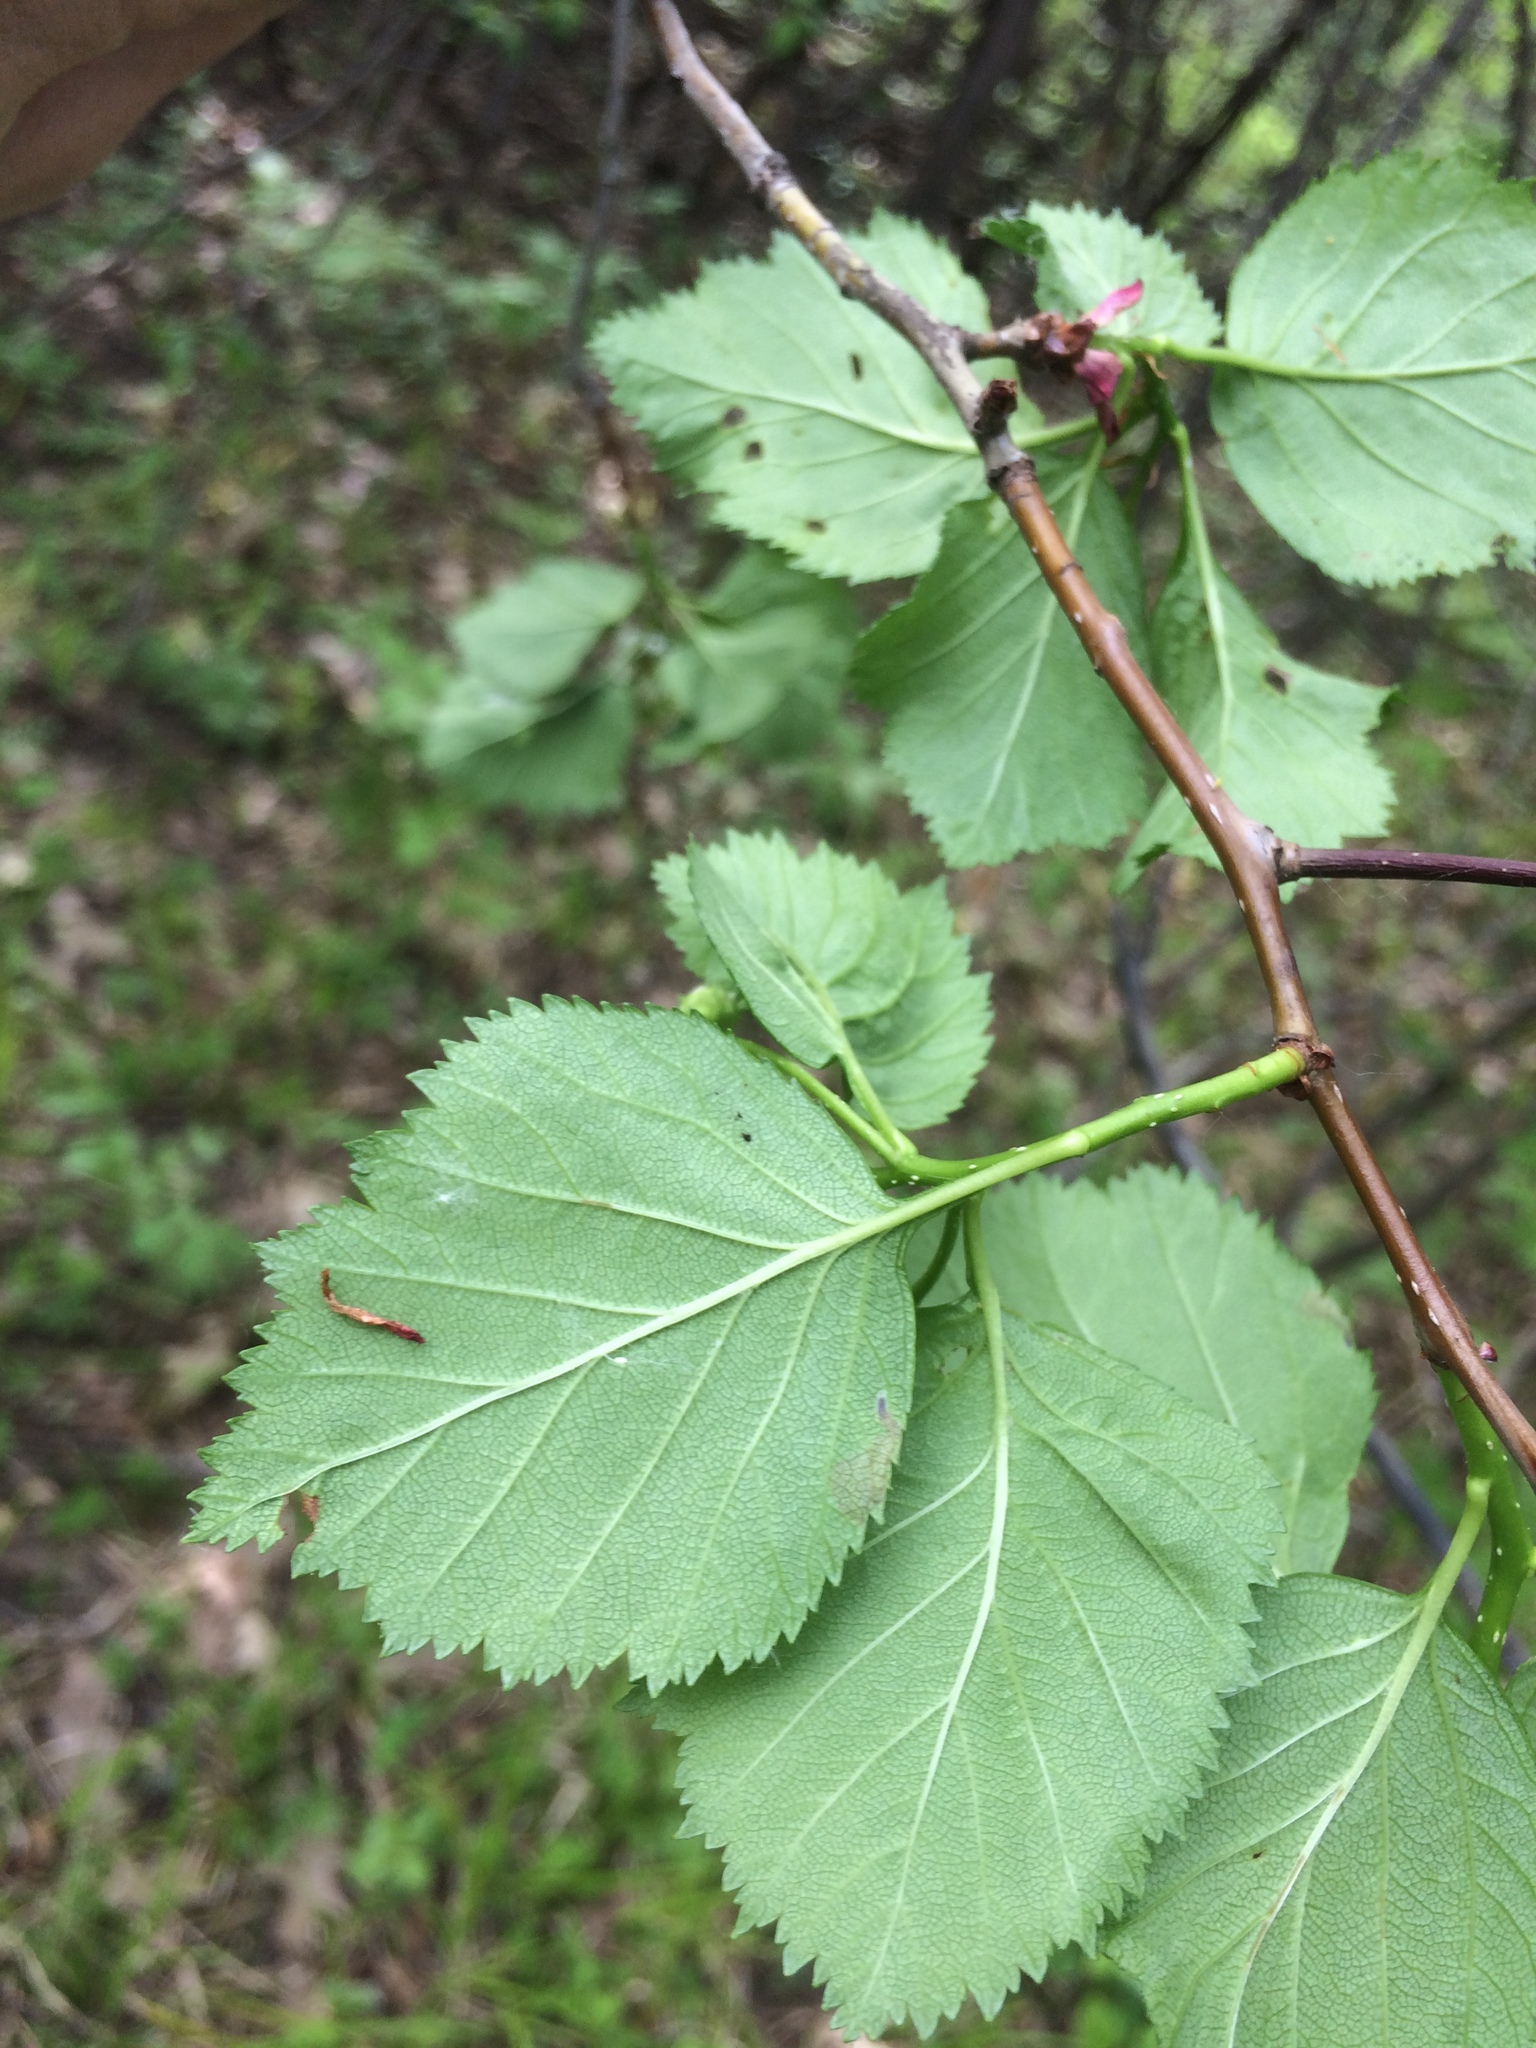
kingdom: Plantae
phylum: Tracheophyta
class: Magnoliopsida
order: Rosales
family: Rosaceae
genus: Crataegus
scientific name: Crataegus macracantha
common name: Large-thorn hawthorn
